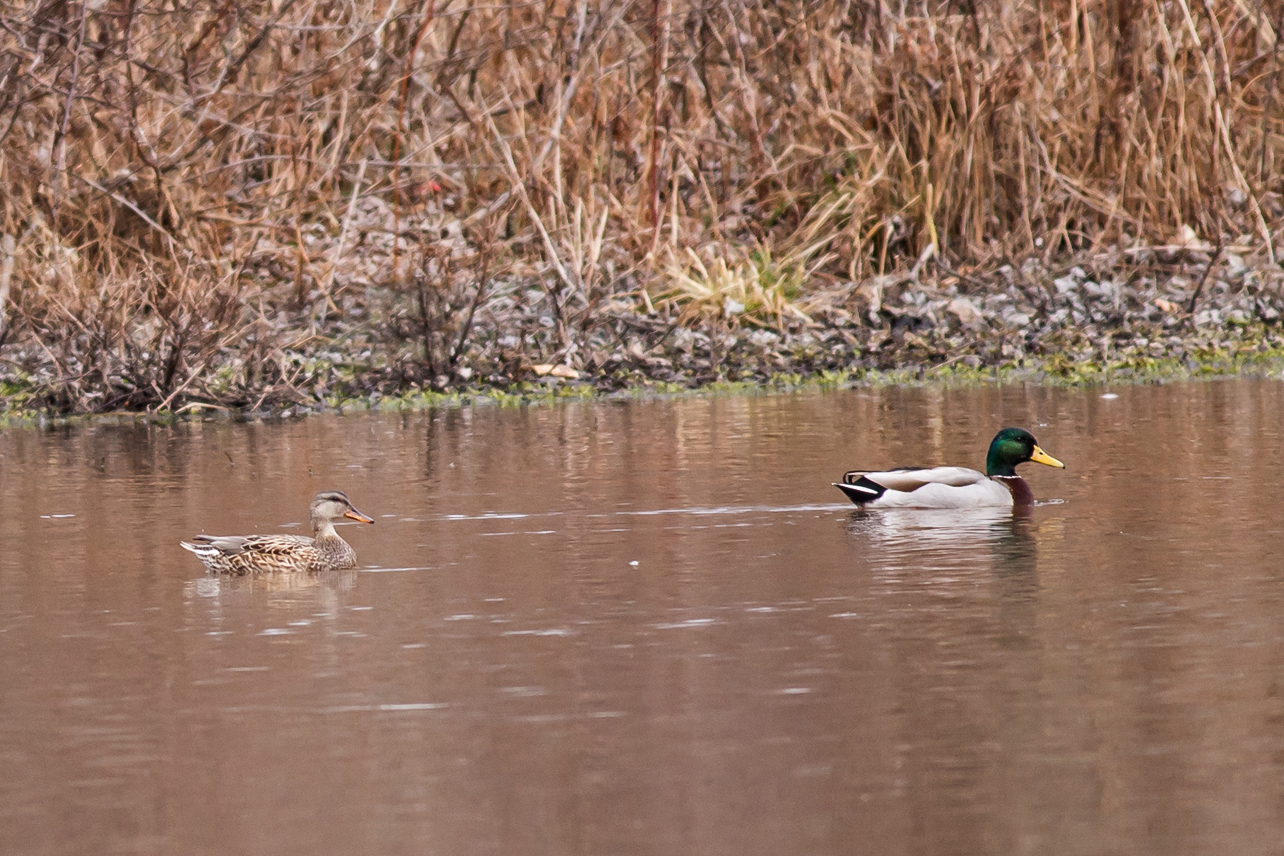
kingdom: Animalia
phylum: Chordata
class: Aves
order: Anseriformes
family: Anatidae
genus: Anas
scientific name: Anas platyrhynchos
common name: Mallard
